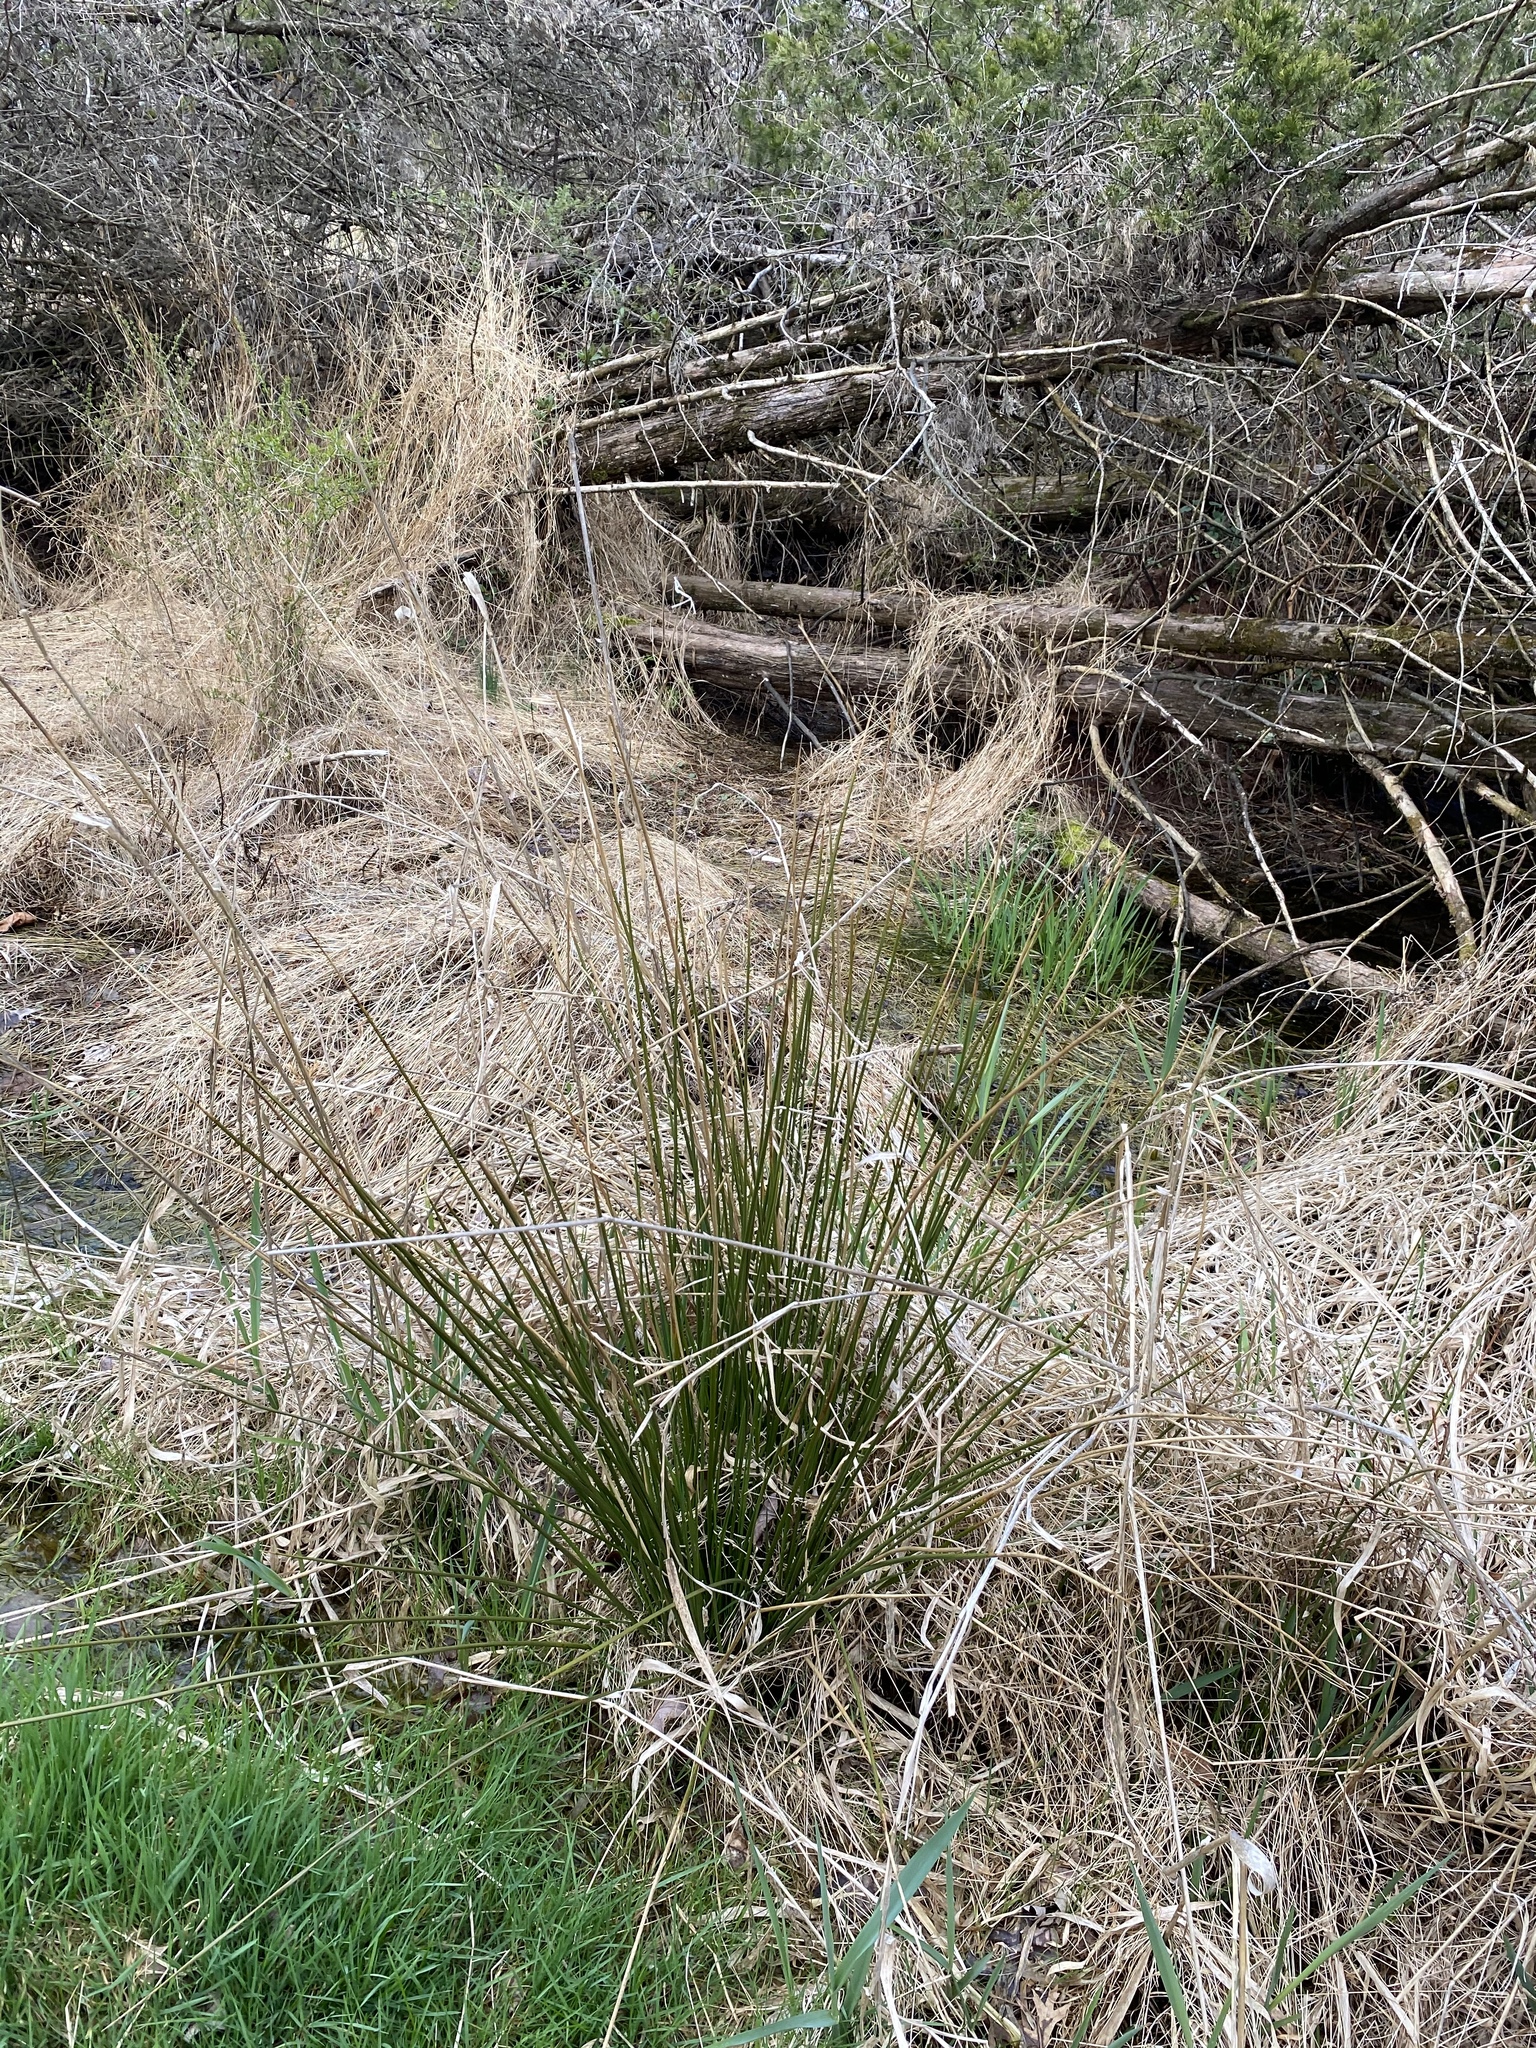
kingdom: Plantae
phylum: Tracheophyta
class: Liliopsida
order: Poales
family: Juncaceae
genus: Juncus
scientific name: Juncus effusus
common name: Soft rush
